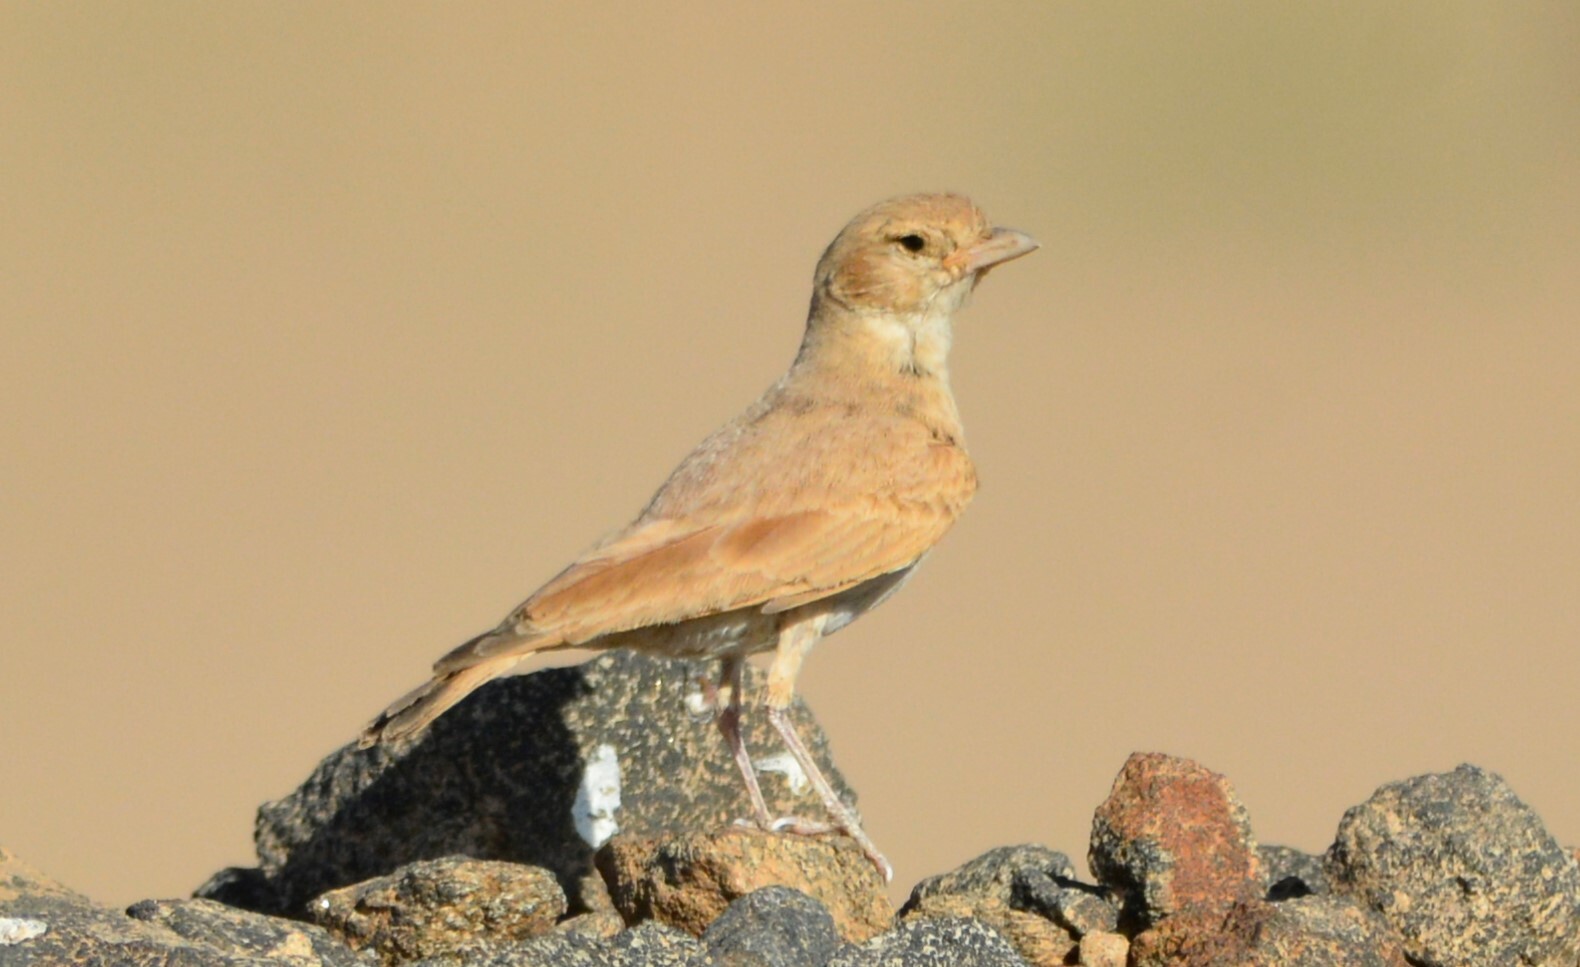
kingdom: Animalia
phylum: Chordata
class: Aves
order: Passeriformes
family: Alaudidae
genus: Eremalauda
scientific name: Eremalauda dunni
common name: Dunn's lark
